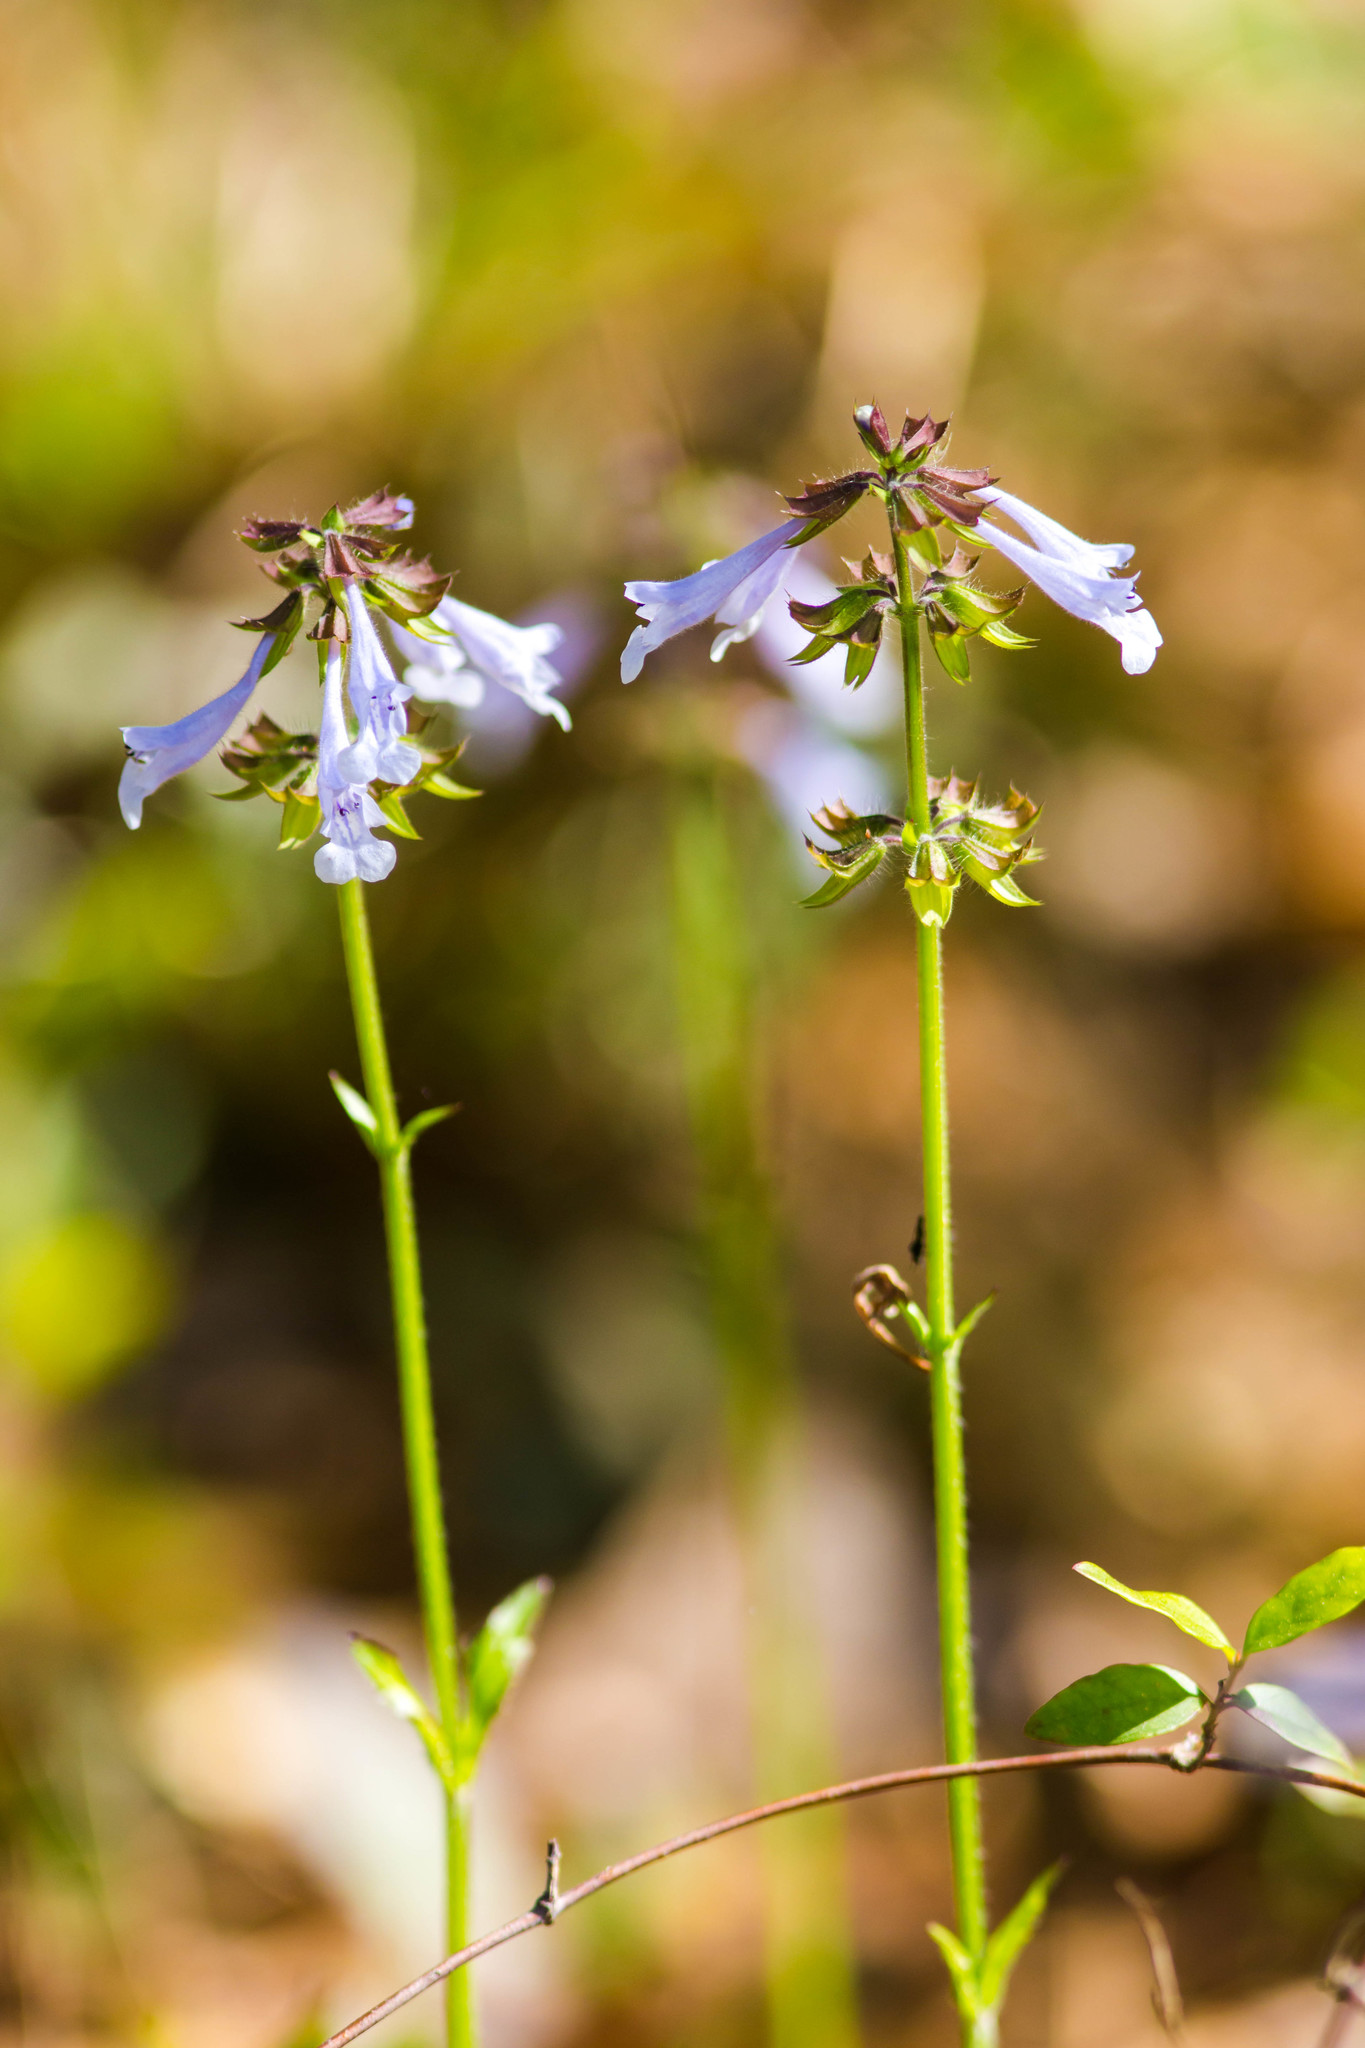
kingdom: Plantae
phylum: Tracheophyta
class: Magnoliopsida
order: Lamiales
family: Lamiaceae
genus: Salvia
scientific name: Salvia lyrata
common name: Cancerweed
